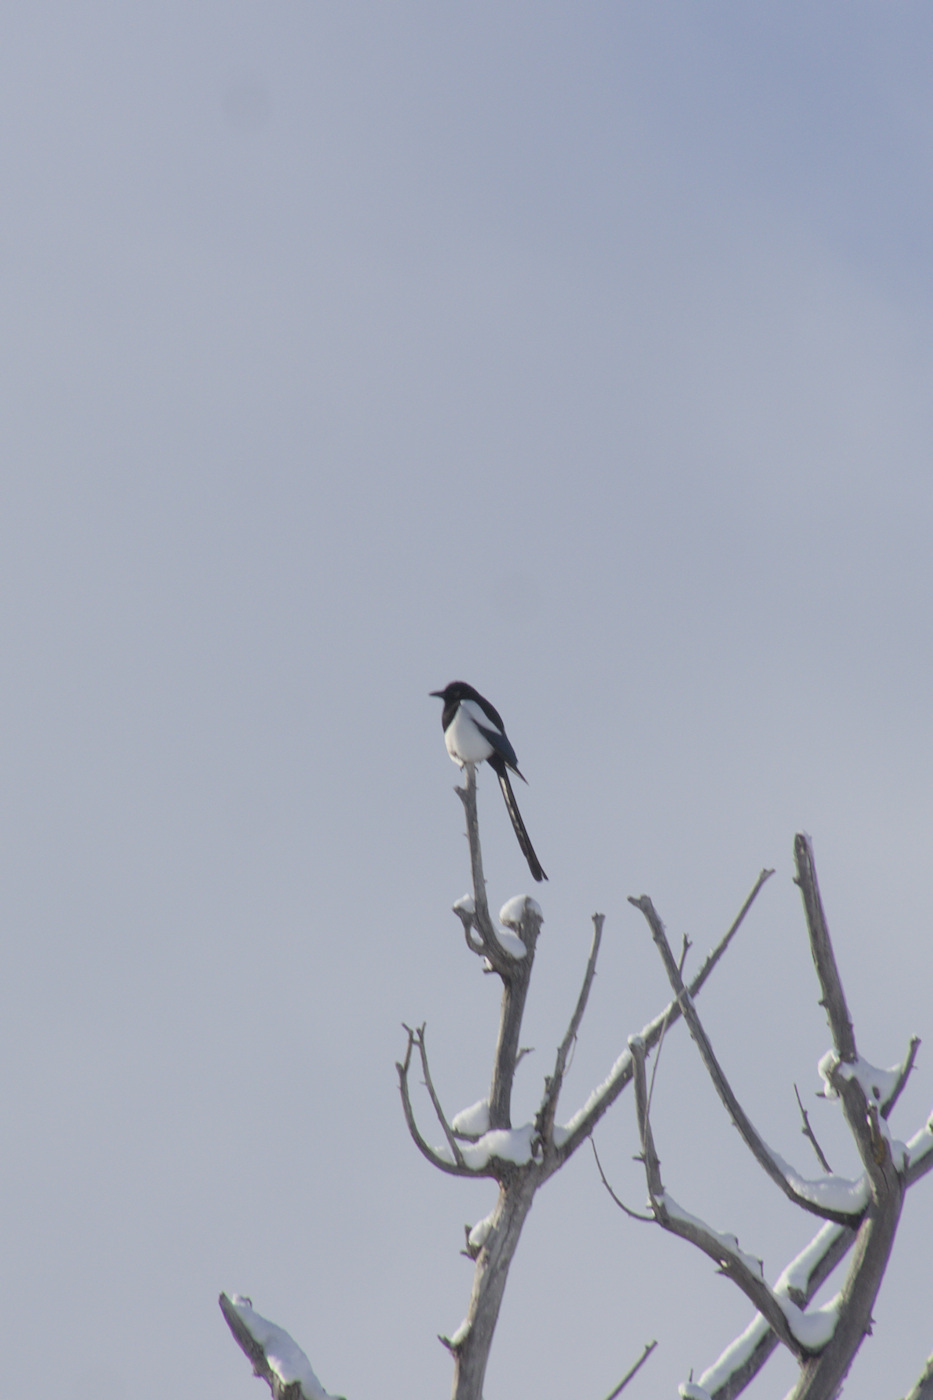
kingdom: Animalia
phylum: Chordata
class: Aves
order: Passeriformes
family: Corvidae
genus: Pica
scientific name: Pica hudsonia
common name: Black-billed magpie
